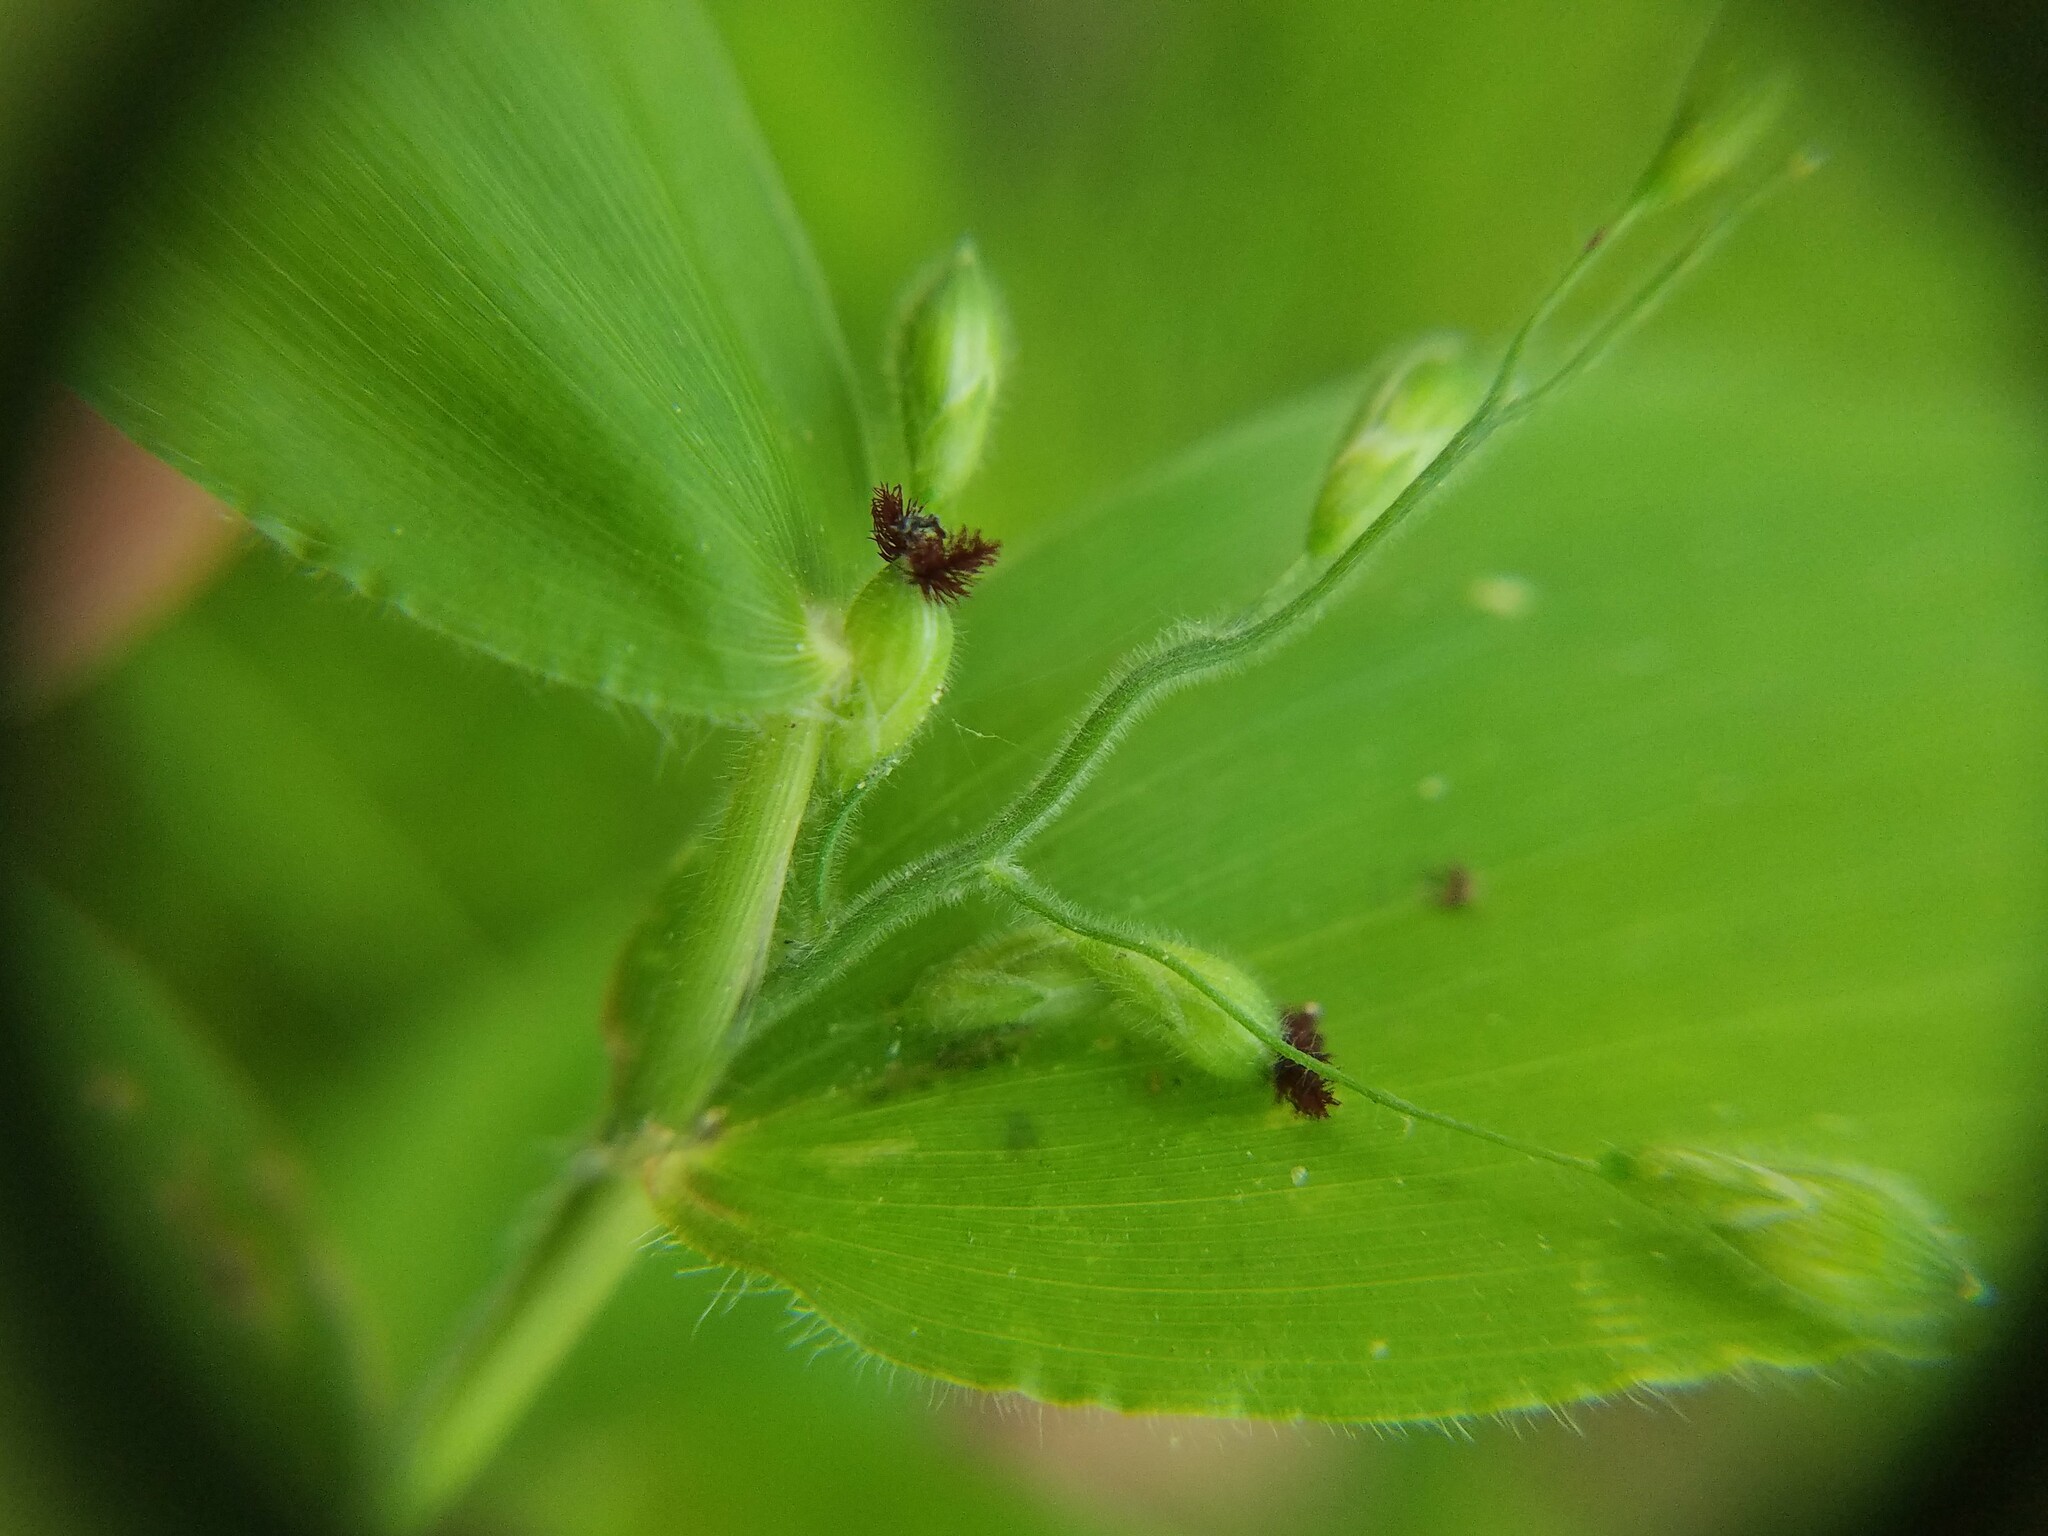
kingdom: Plantae
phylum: Tracheophyta
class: Liliopsida
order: Poales
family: Poaceae
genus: Dichanthelium
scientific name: Dichanthelium boscii
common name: Bosc's panic grass
